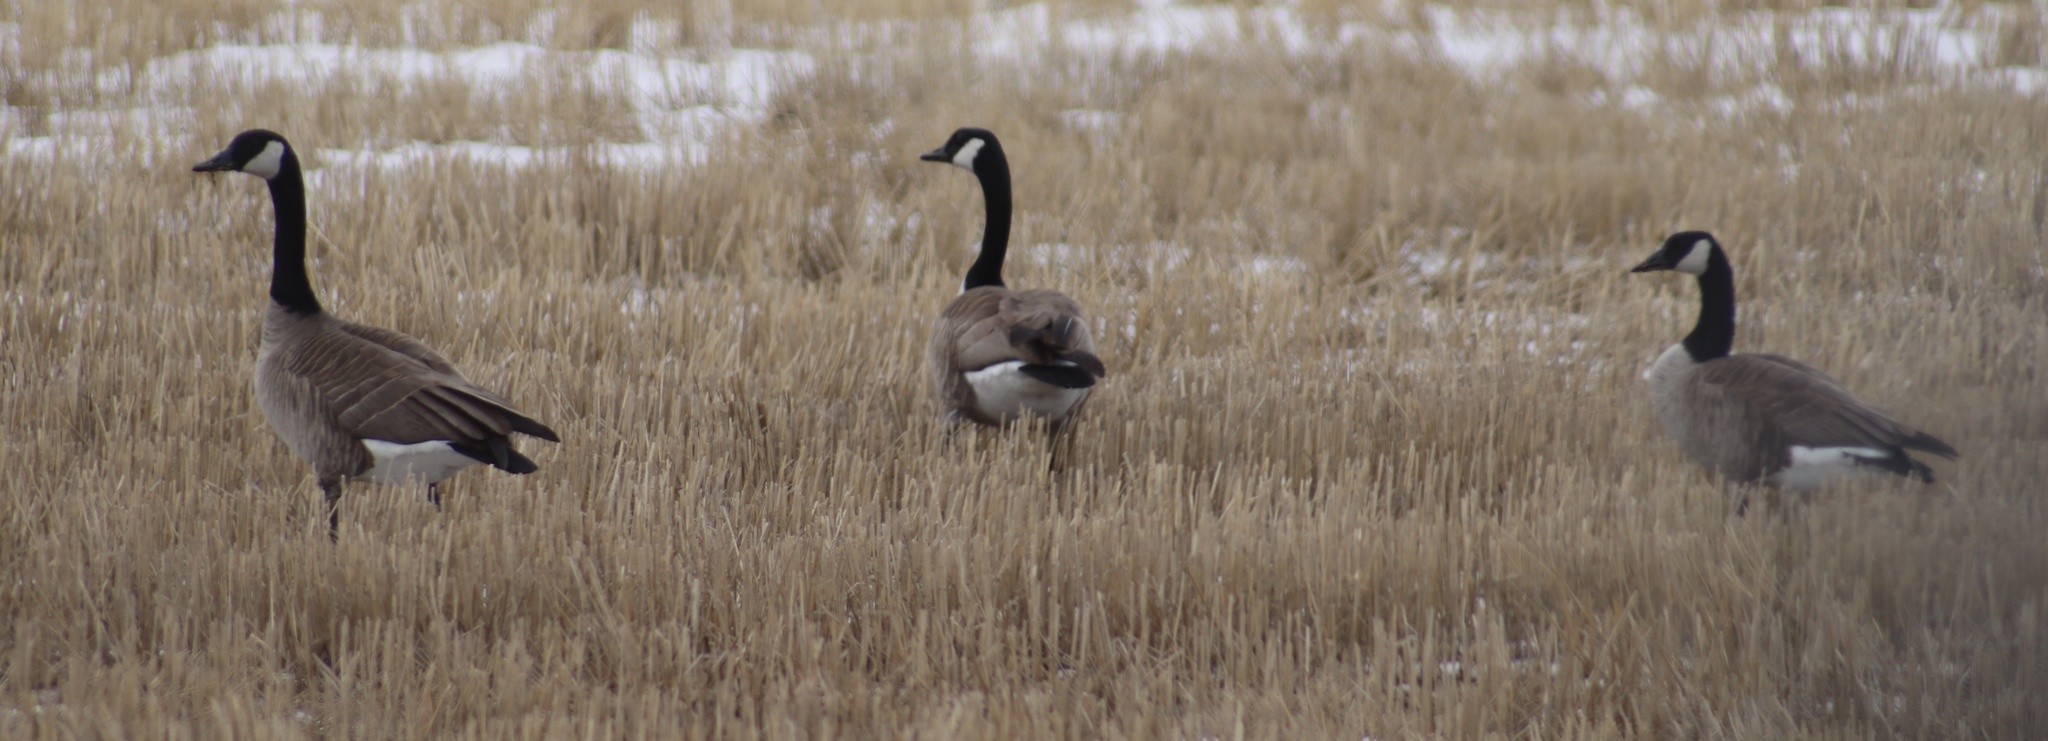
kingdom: Animalia
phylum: Chordata
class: Aves
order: Anseriformes
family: Anatidae
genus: Branta
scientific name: Branta canadensis
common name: Canada goose
